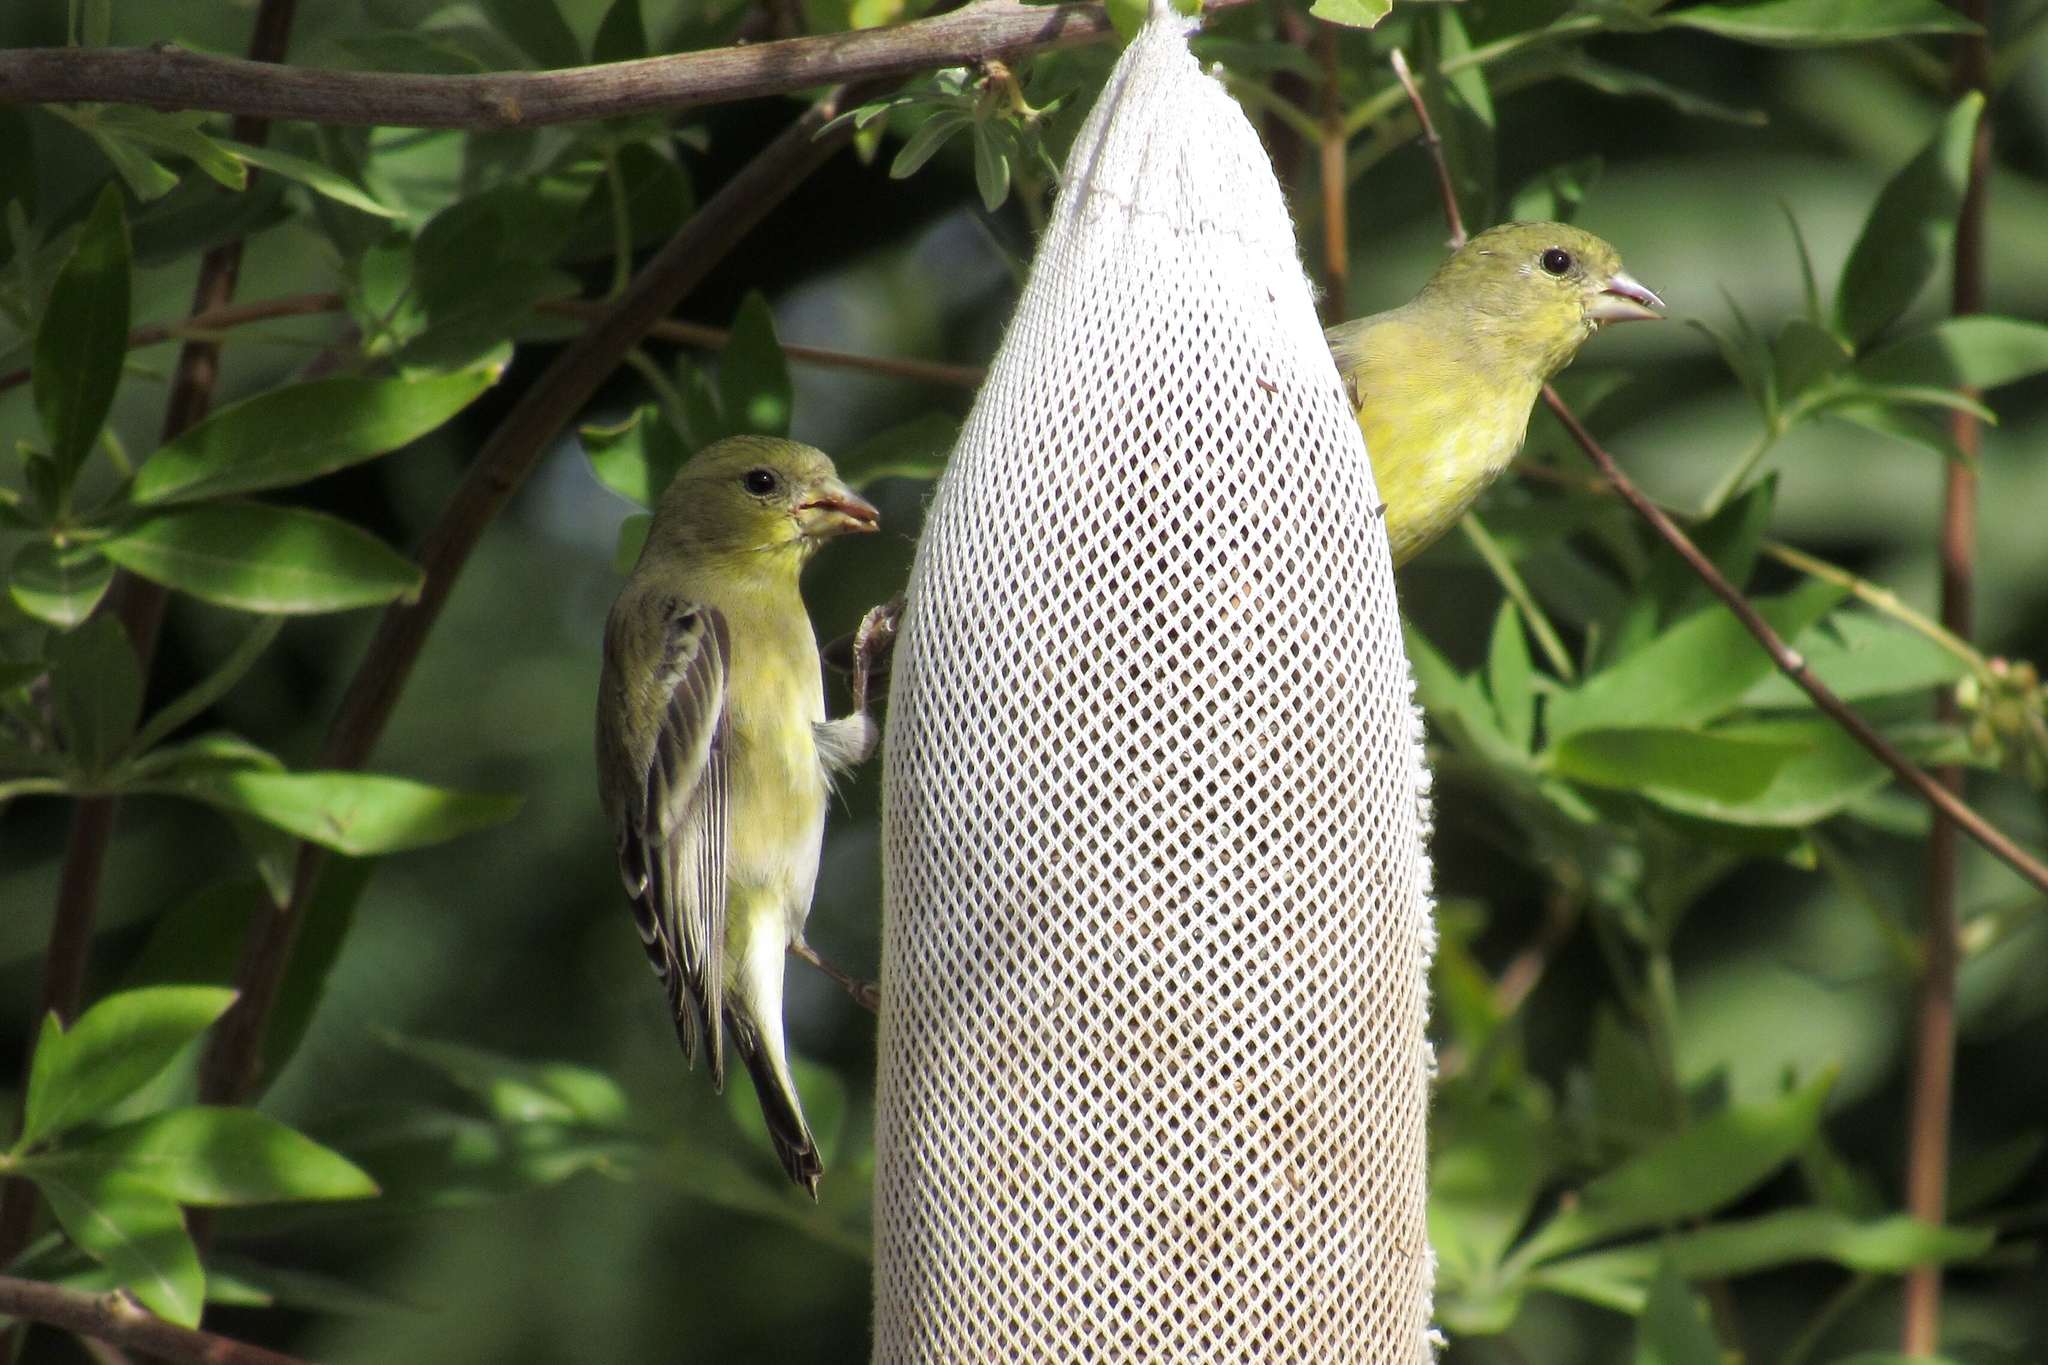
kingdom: Animalia
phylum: Chordata
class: Aves
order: Passeriformes
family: Fringillidae
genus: Spinus
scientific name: Spinus psaltria
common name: Lesser goldfinch
